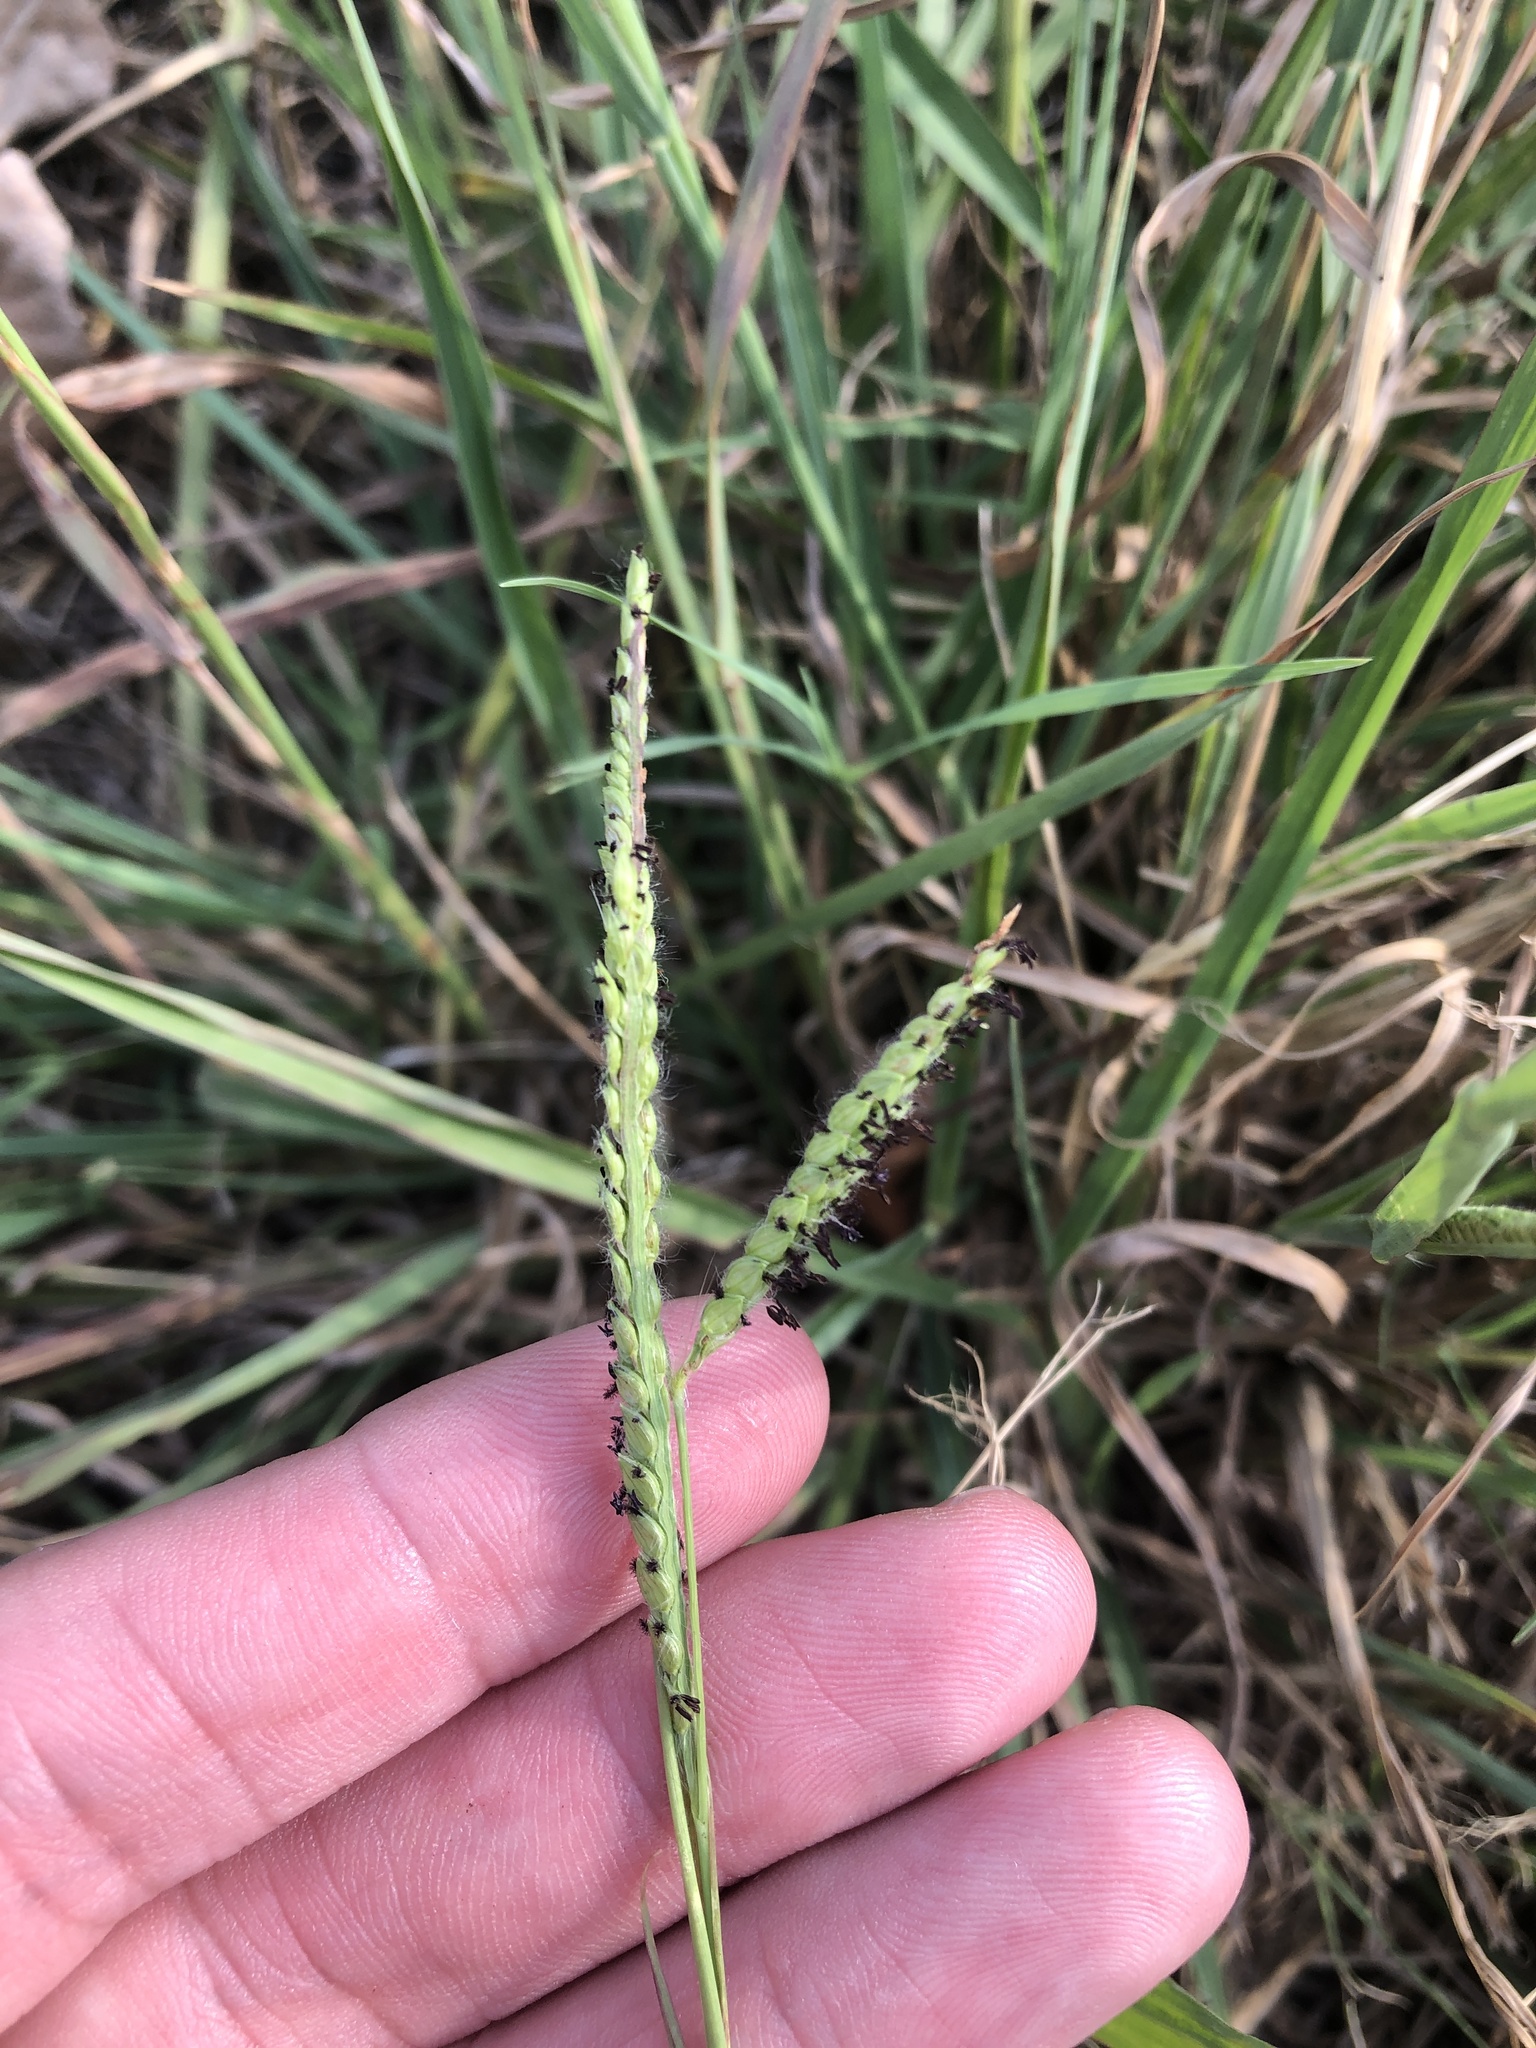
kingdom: Plantae
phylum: Tracheophyta
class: Liliopsida
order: Poales
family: Poaceae
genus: Paspalum
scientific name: Paspalum dilatatum
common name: Dallisgrass
